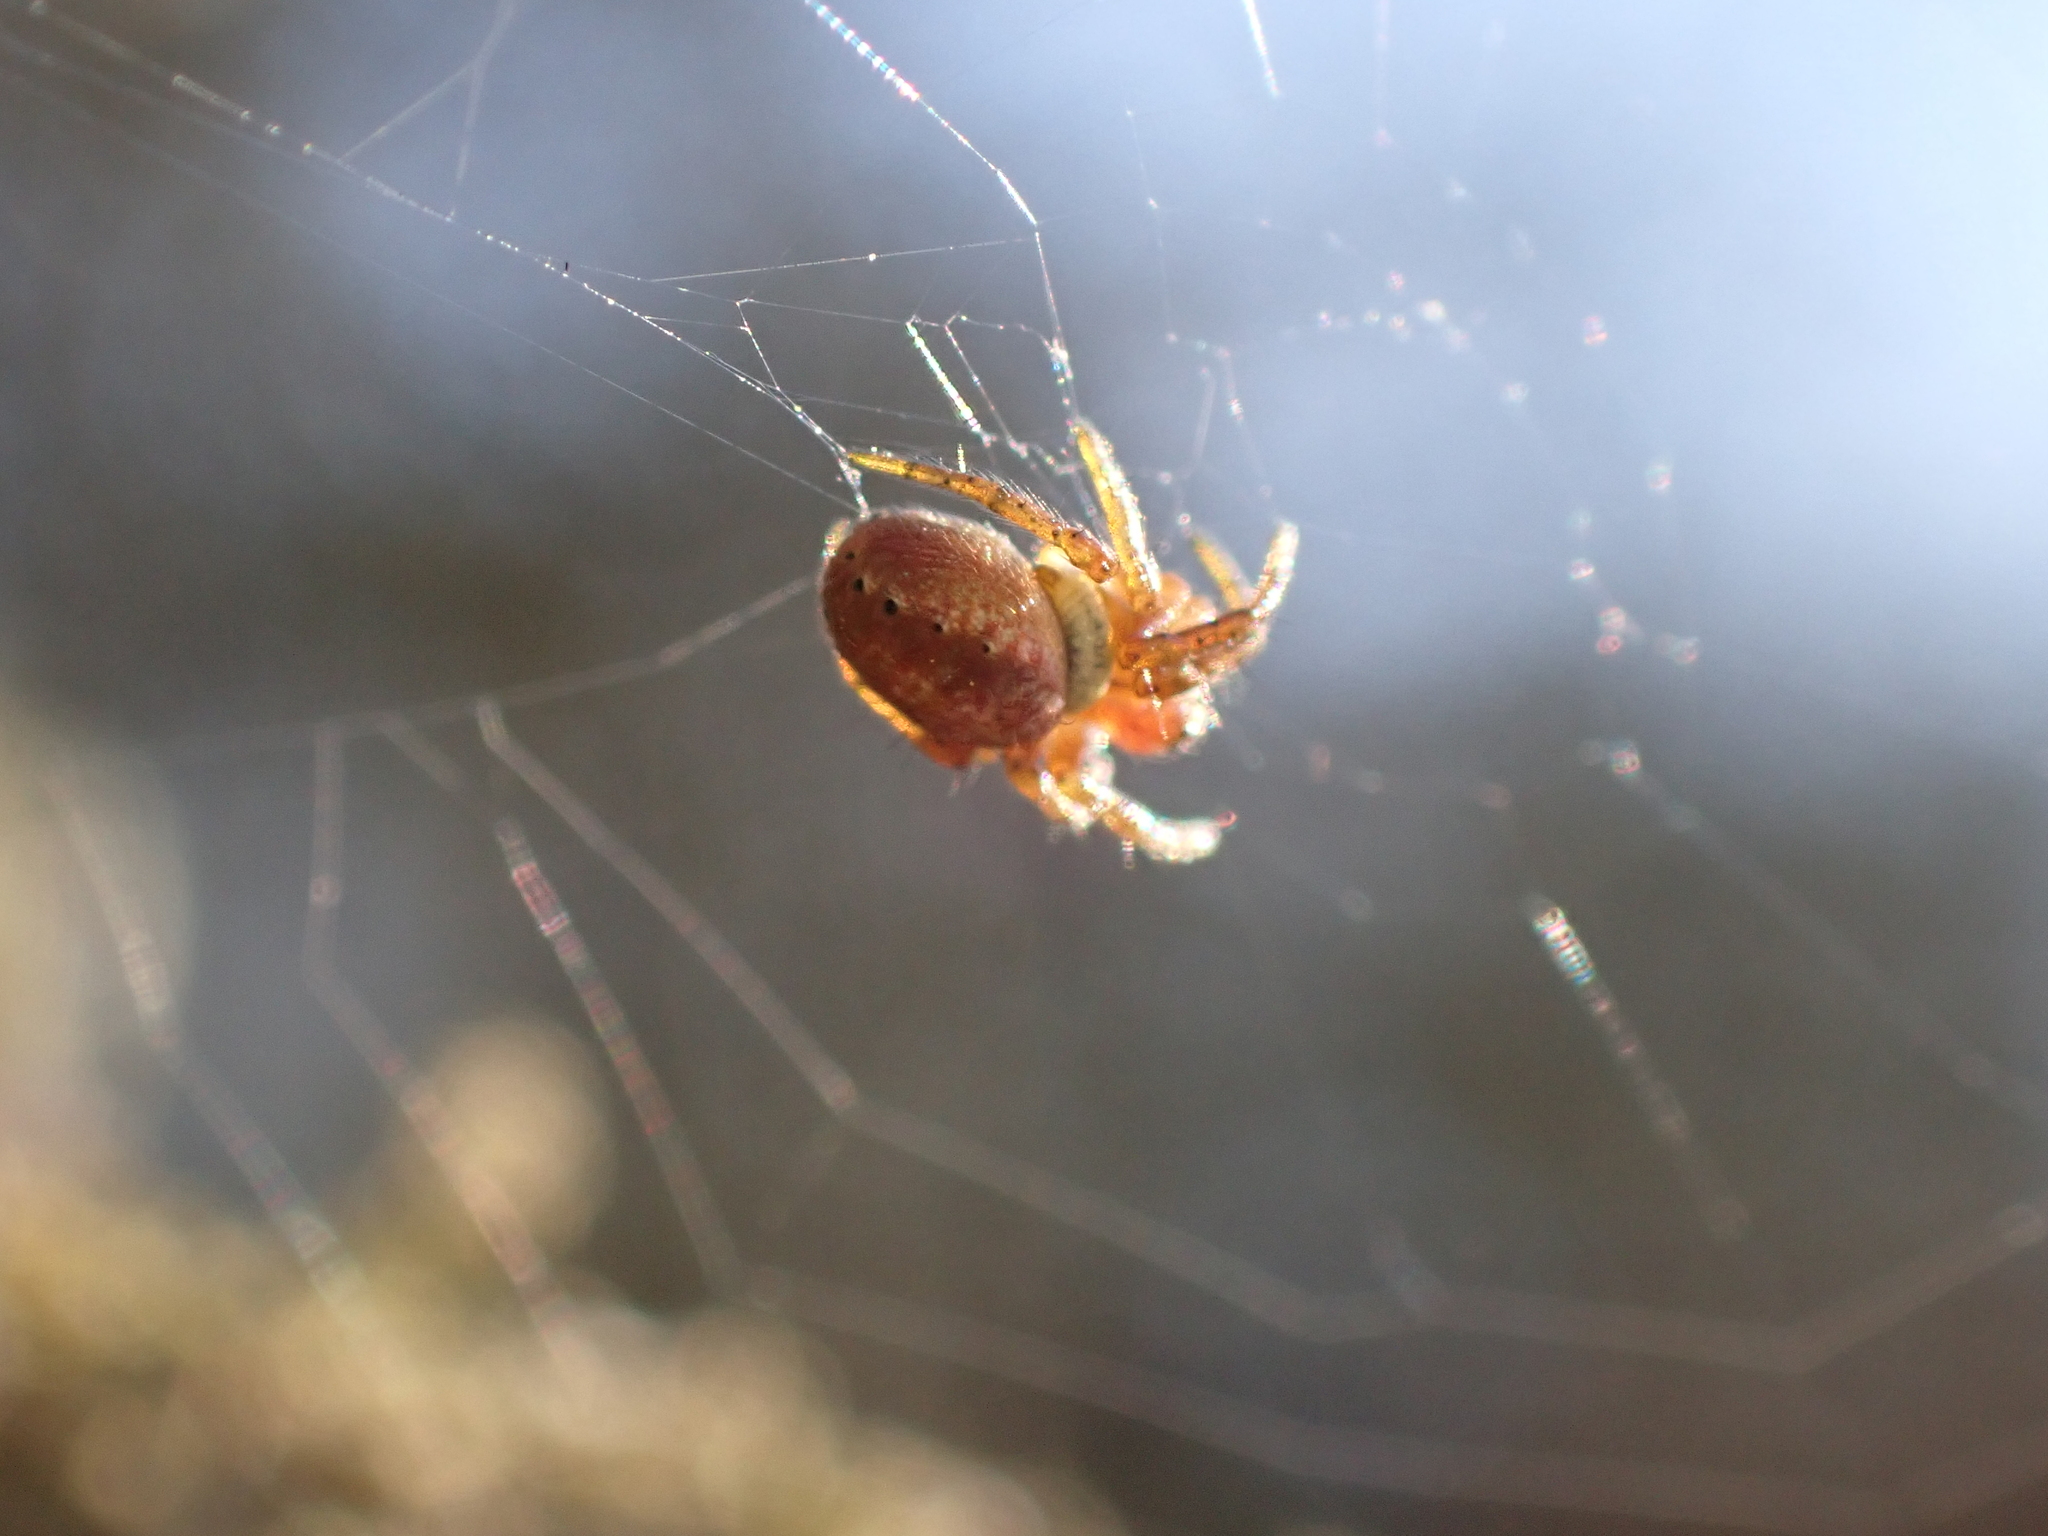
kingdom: Animalia
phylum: Arthropoda
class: Arachnida
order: Araneae
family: Araneidae
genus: Araniella
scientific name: Araniella
